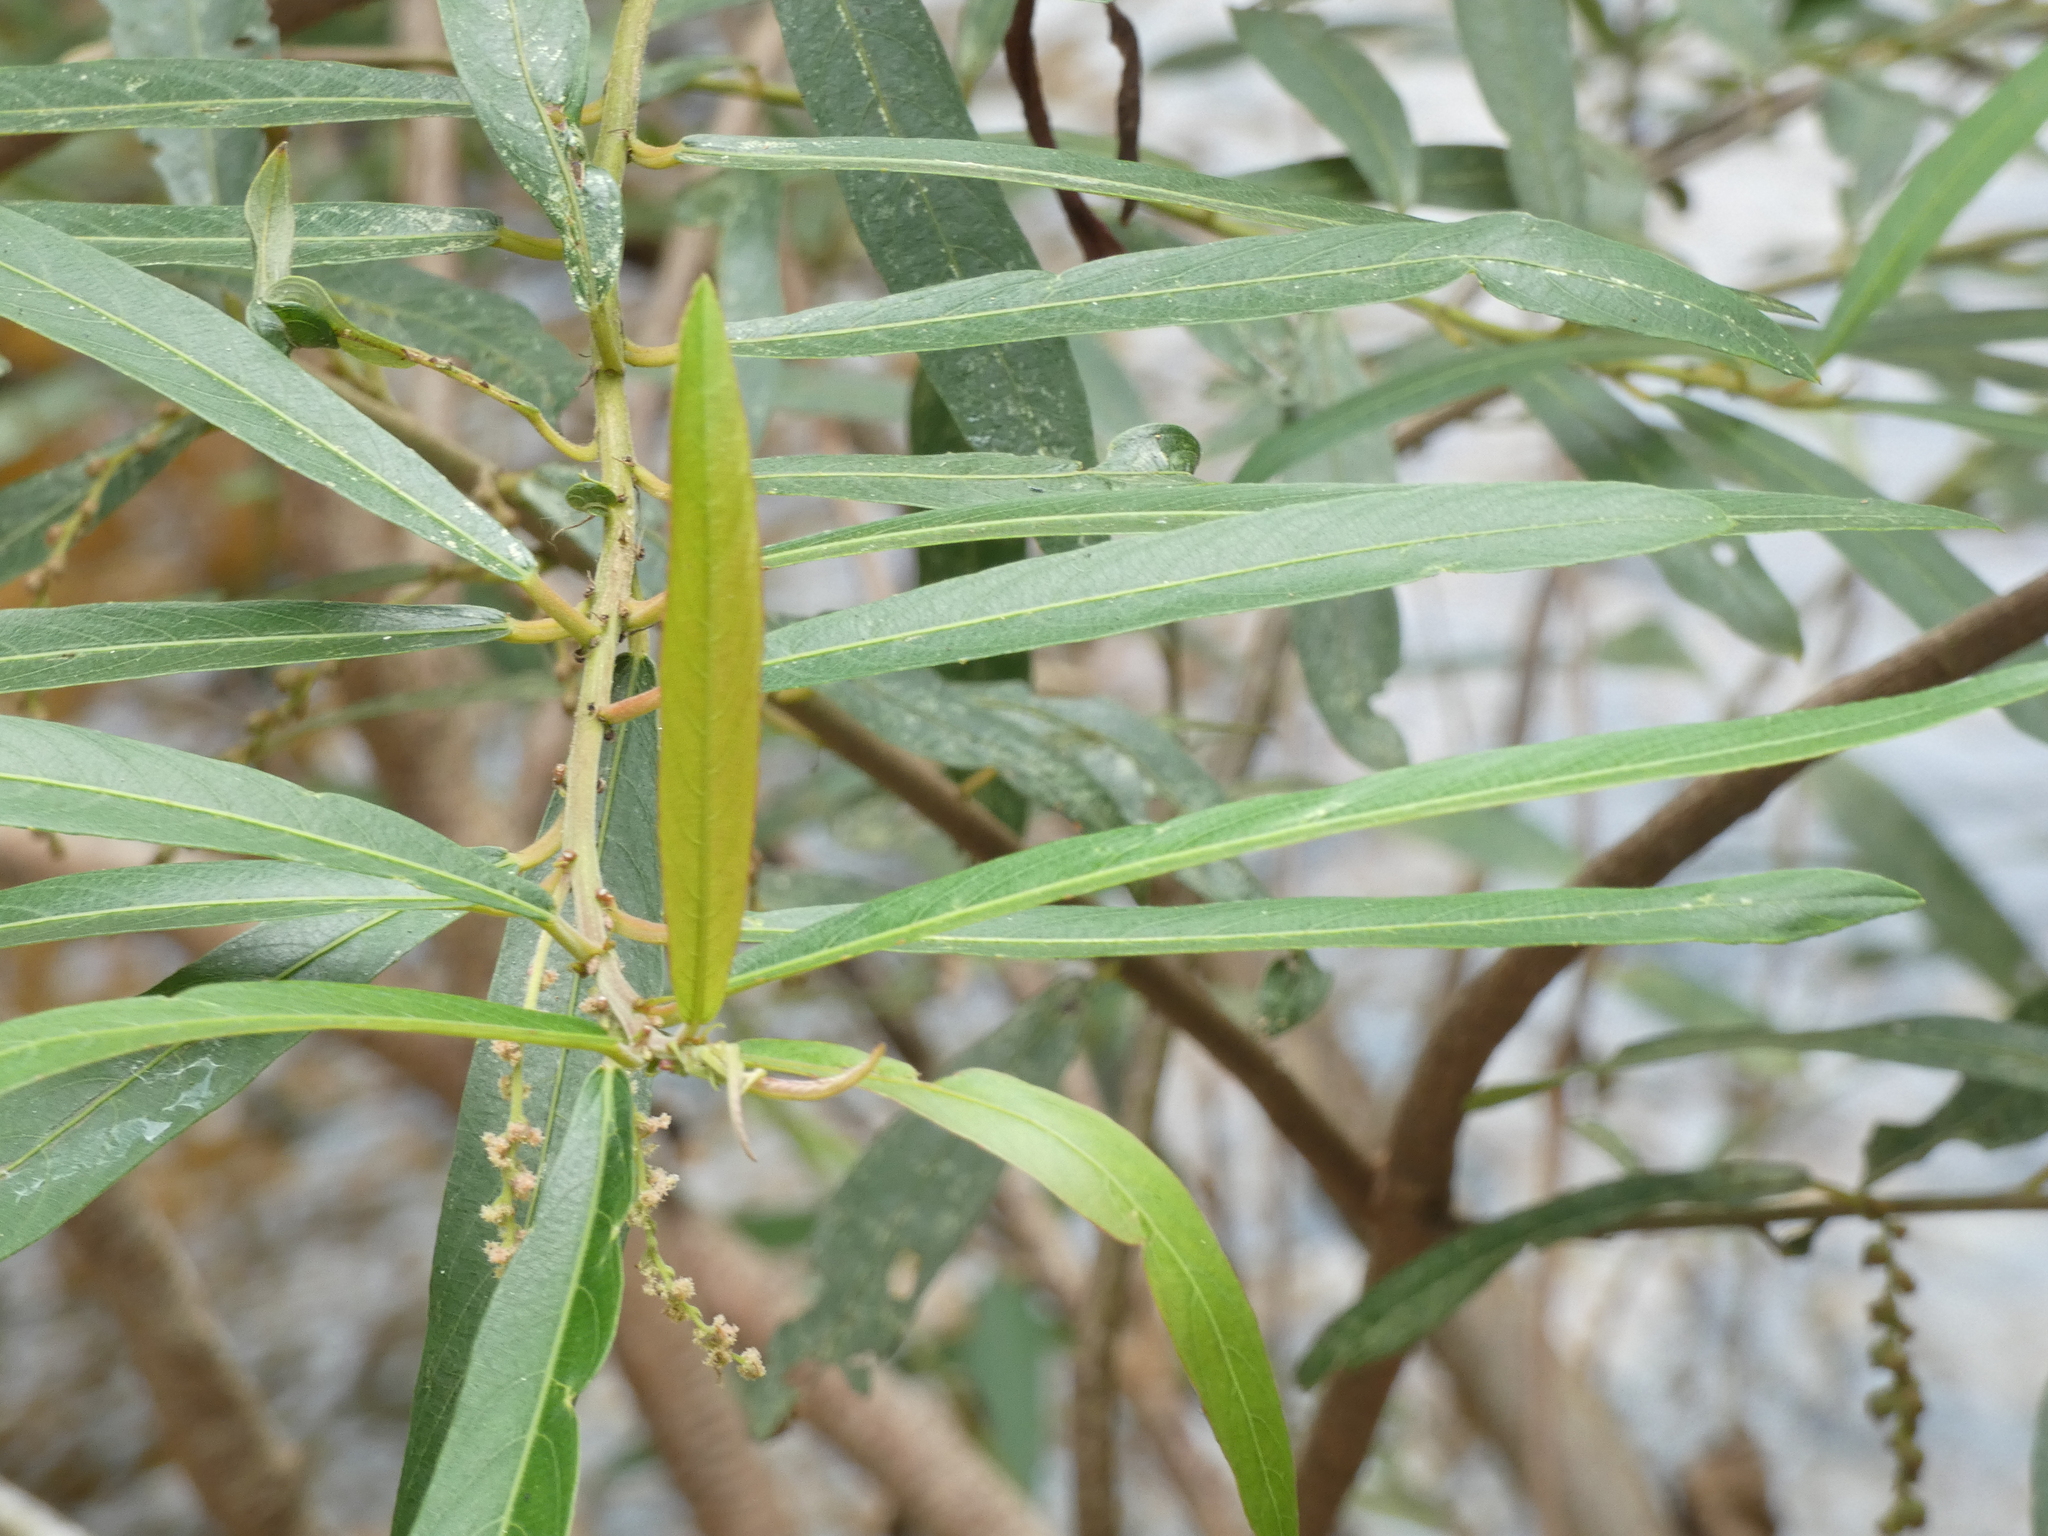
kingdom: Plantae
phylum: Tracheophyta
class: Magnoliopsida
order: Malpighiales
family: Euphorbiaceae
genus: Homonoia
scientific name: Homonoia riparia
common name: Willow-leaved water croton
